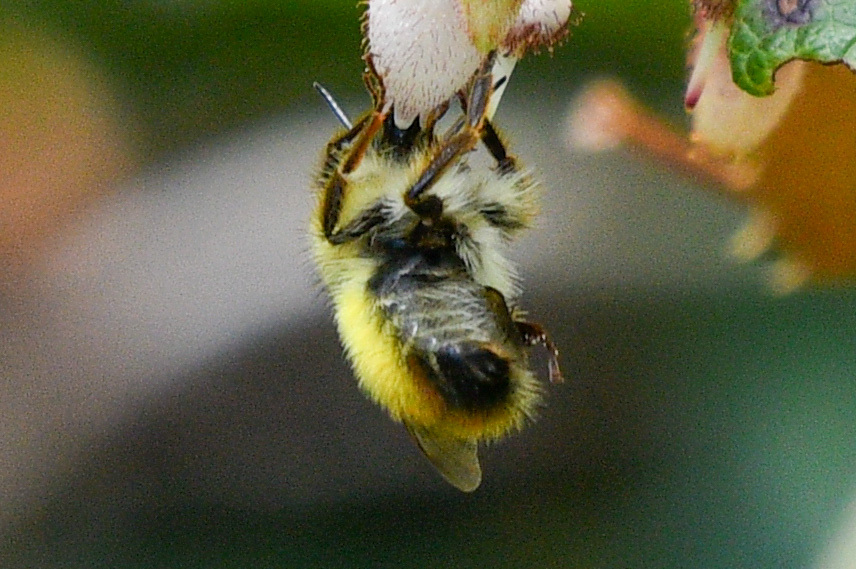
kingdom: Animalia
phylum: Arthropoda
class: Insecta
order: Hymenoptera
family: Apidae
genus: Bombus
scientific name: Bombus flavifrons
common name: Yellow head bumble bee
